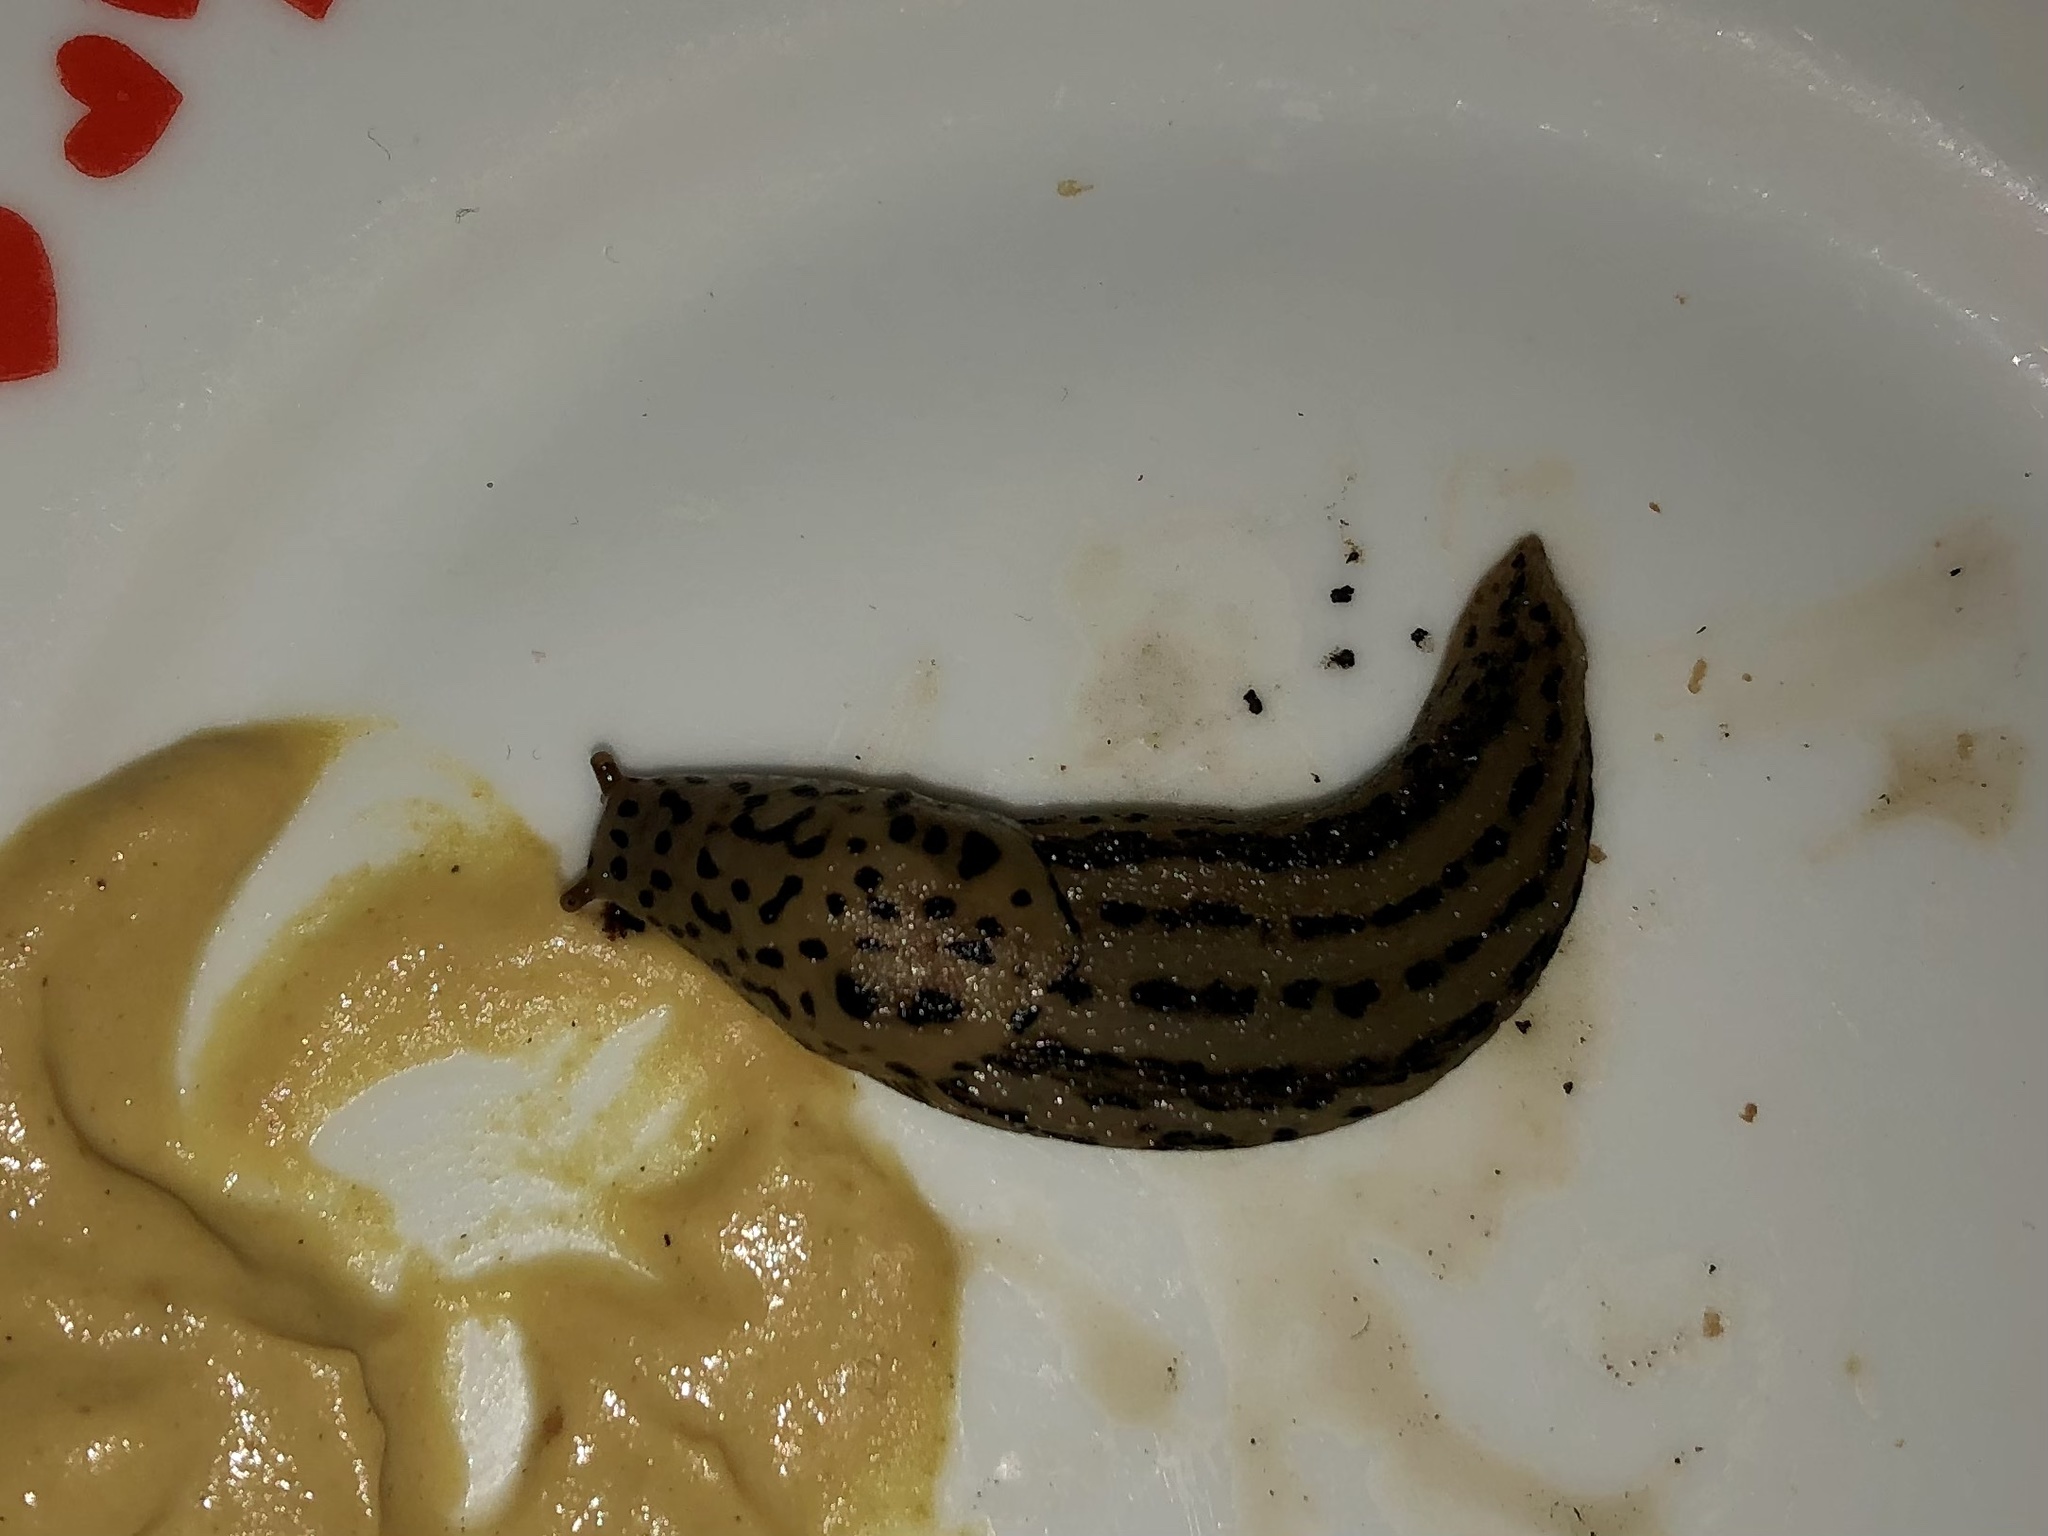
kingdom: Animalia
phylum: Mollusca
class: Gastropoda
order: Stylommatophora
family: Limacidae
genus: Limax
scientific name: Limax maximus
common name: Great grey slug
